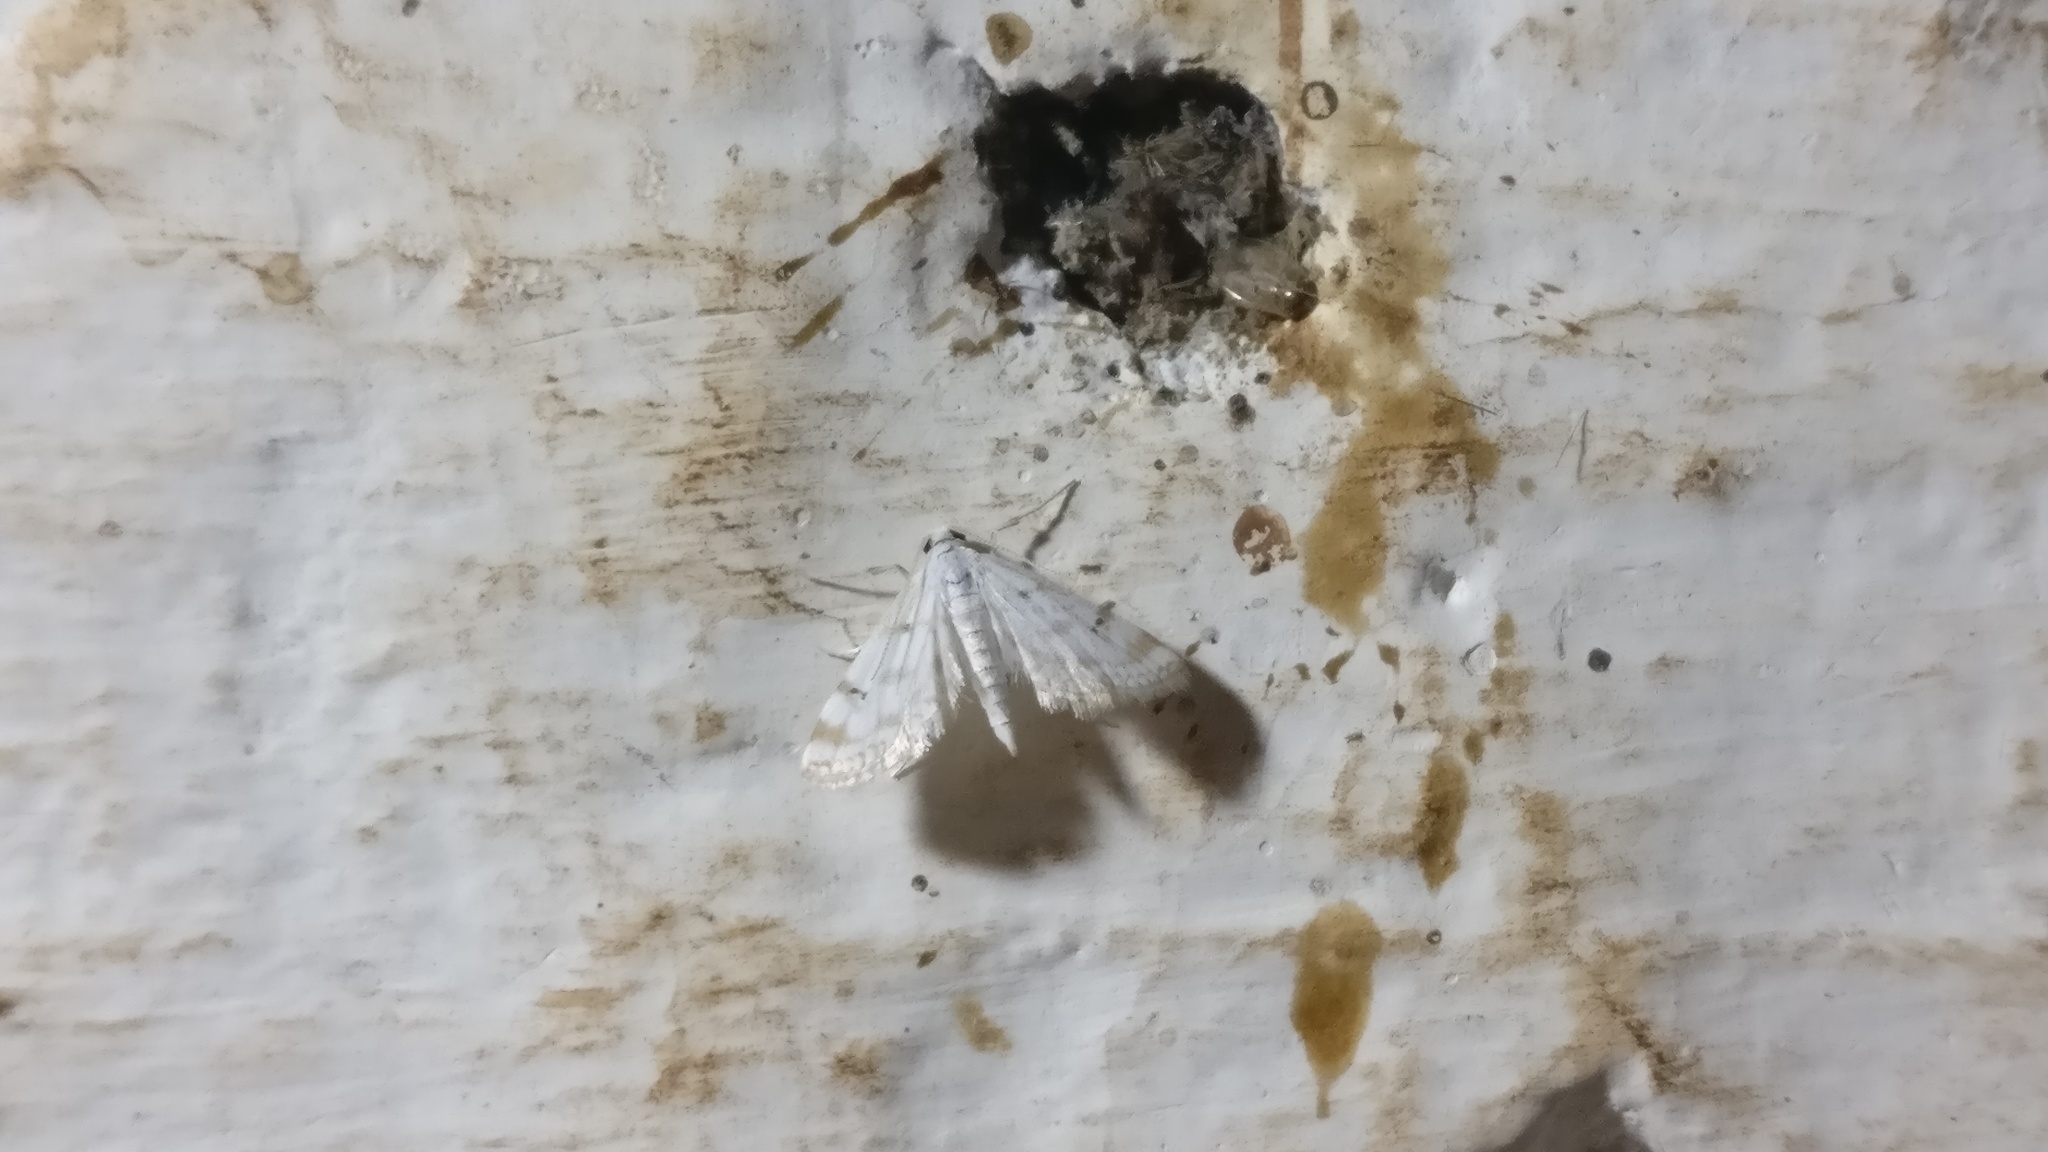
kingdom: Animalia
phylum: Arthropoda
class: Insecta
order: Lepidoptera
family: Crambidae
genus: Parapoynx
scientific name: Parapoynx stagnalis
